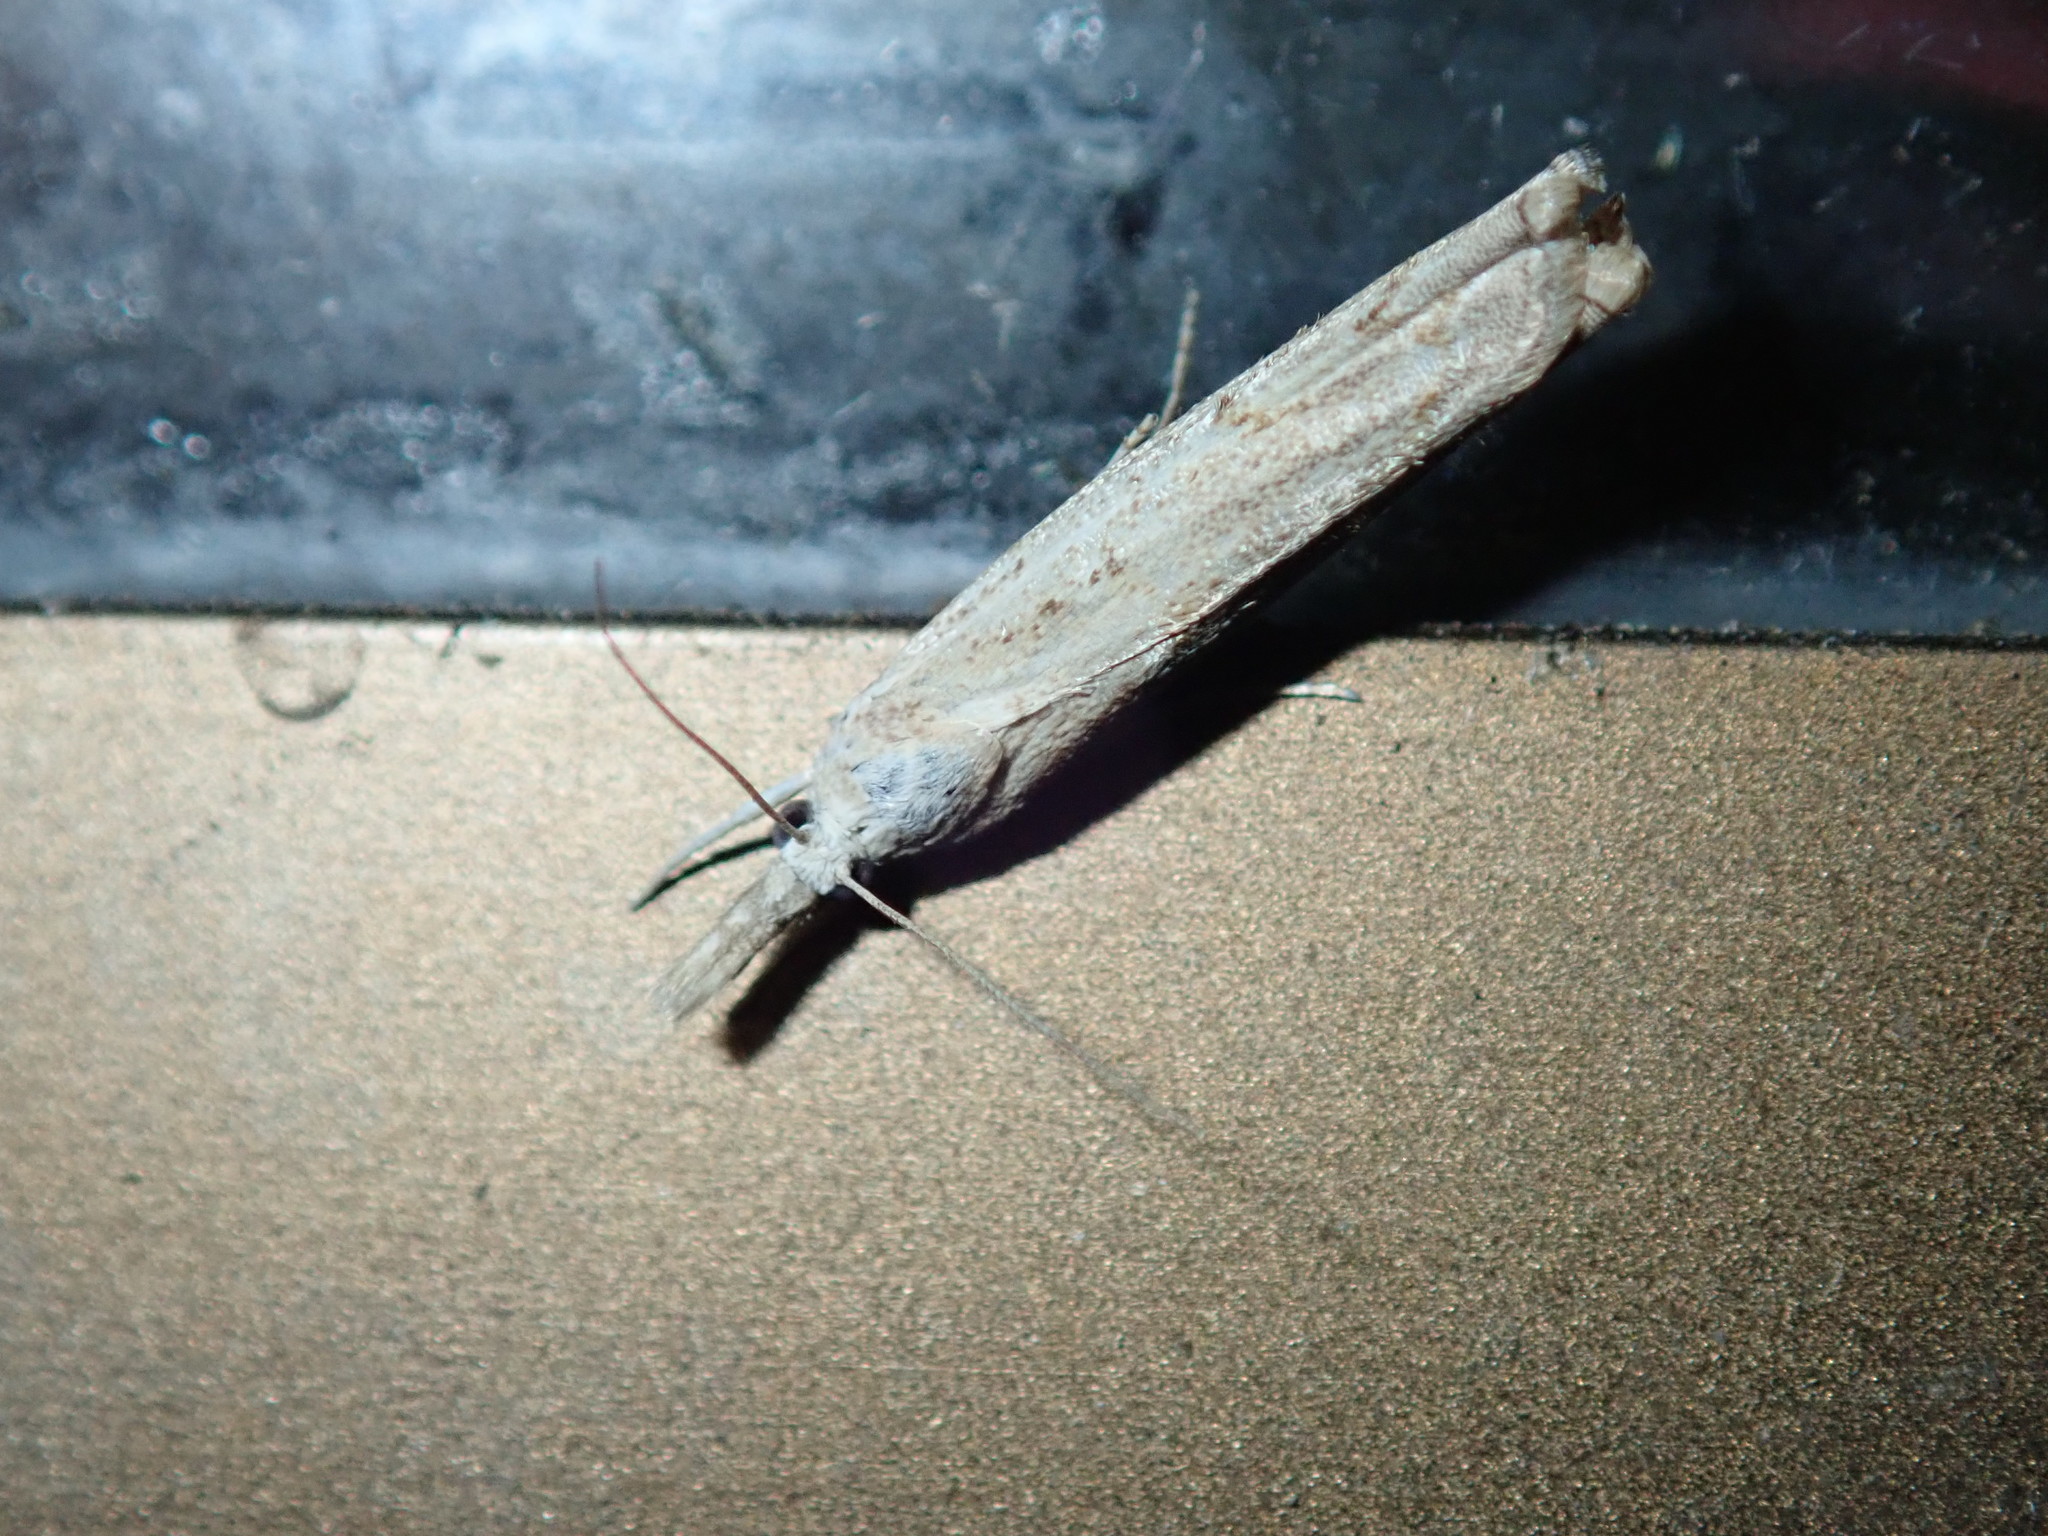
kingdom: Animalia
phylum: Arthropoda
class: Insecta
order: Lepidoptera
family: Crambidae
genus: Culladia
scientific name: Culladia cuneiferellus
